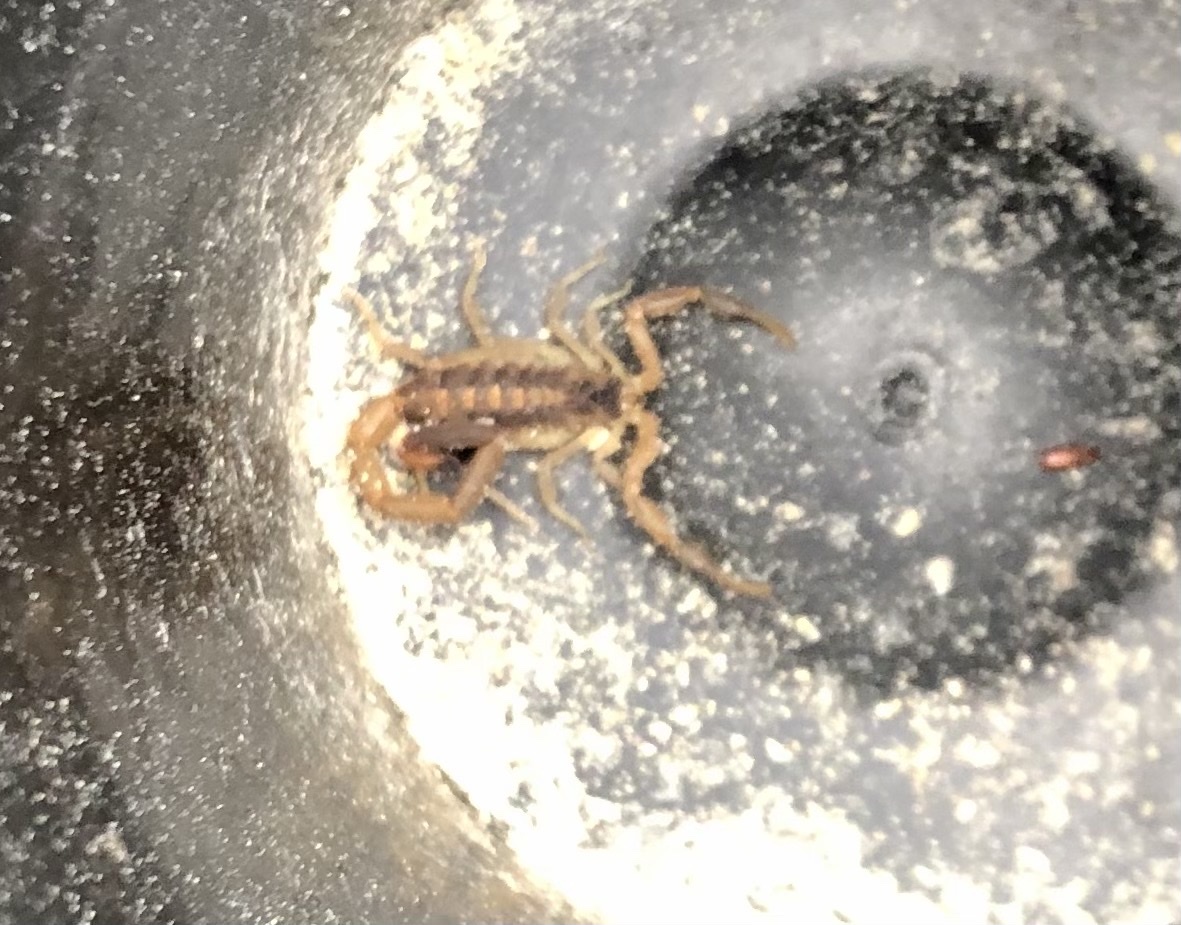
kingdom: Animalia
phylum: Arthropoda
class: Arachnida
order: Scorpiones
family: Buthidae
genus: Centruroides
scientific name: Centruroides vittatus
